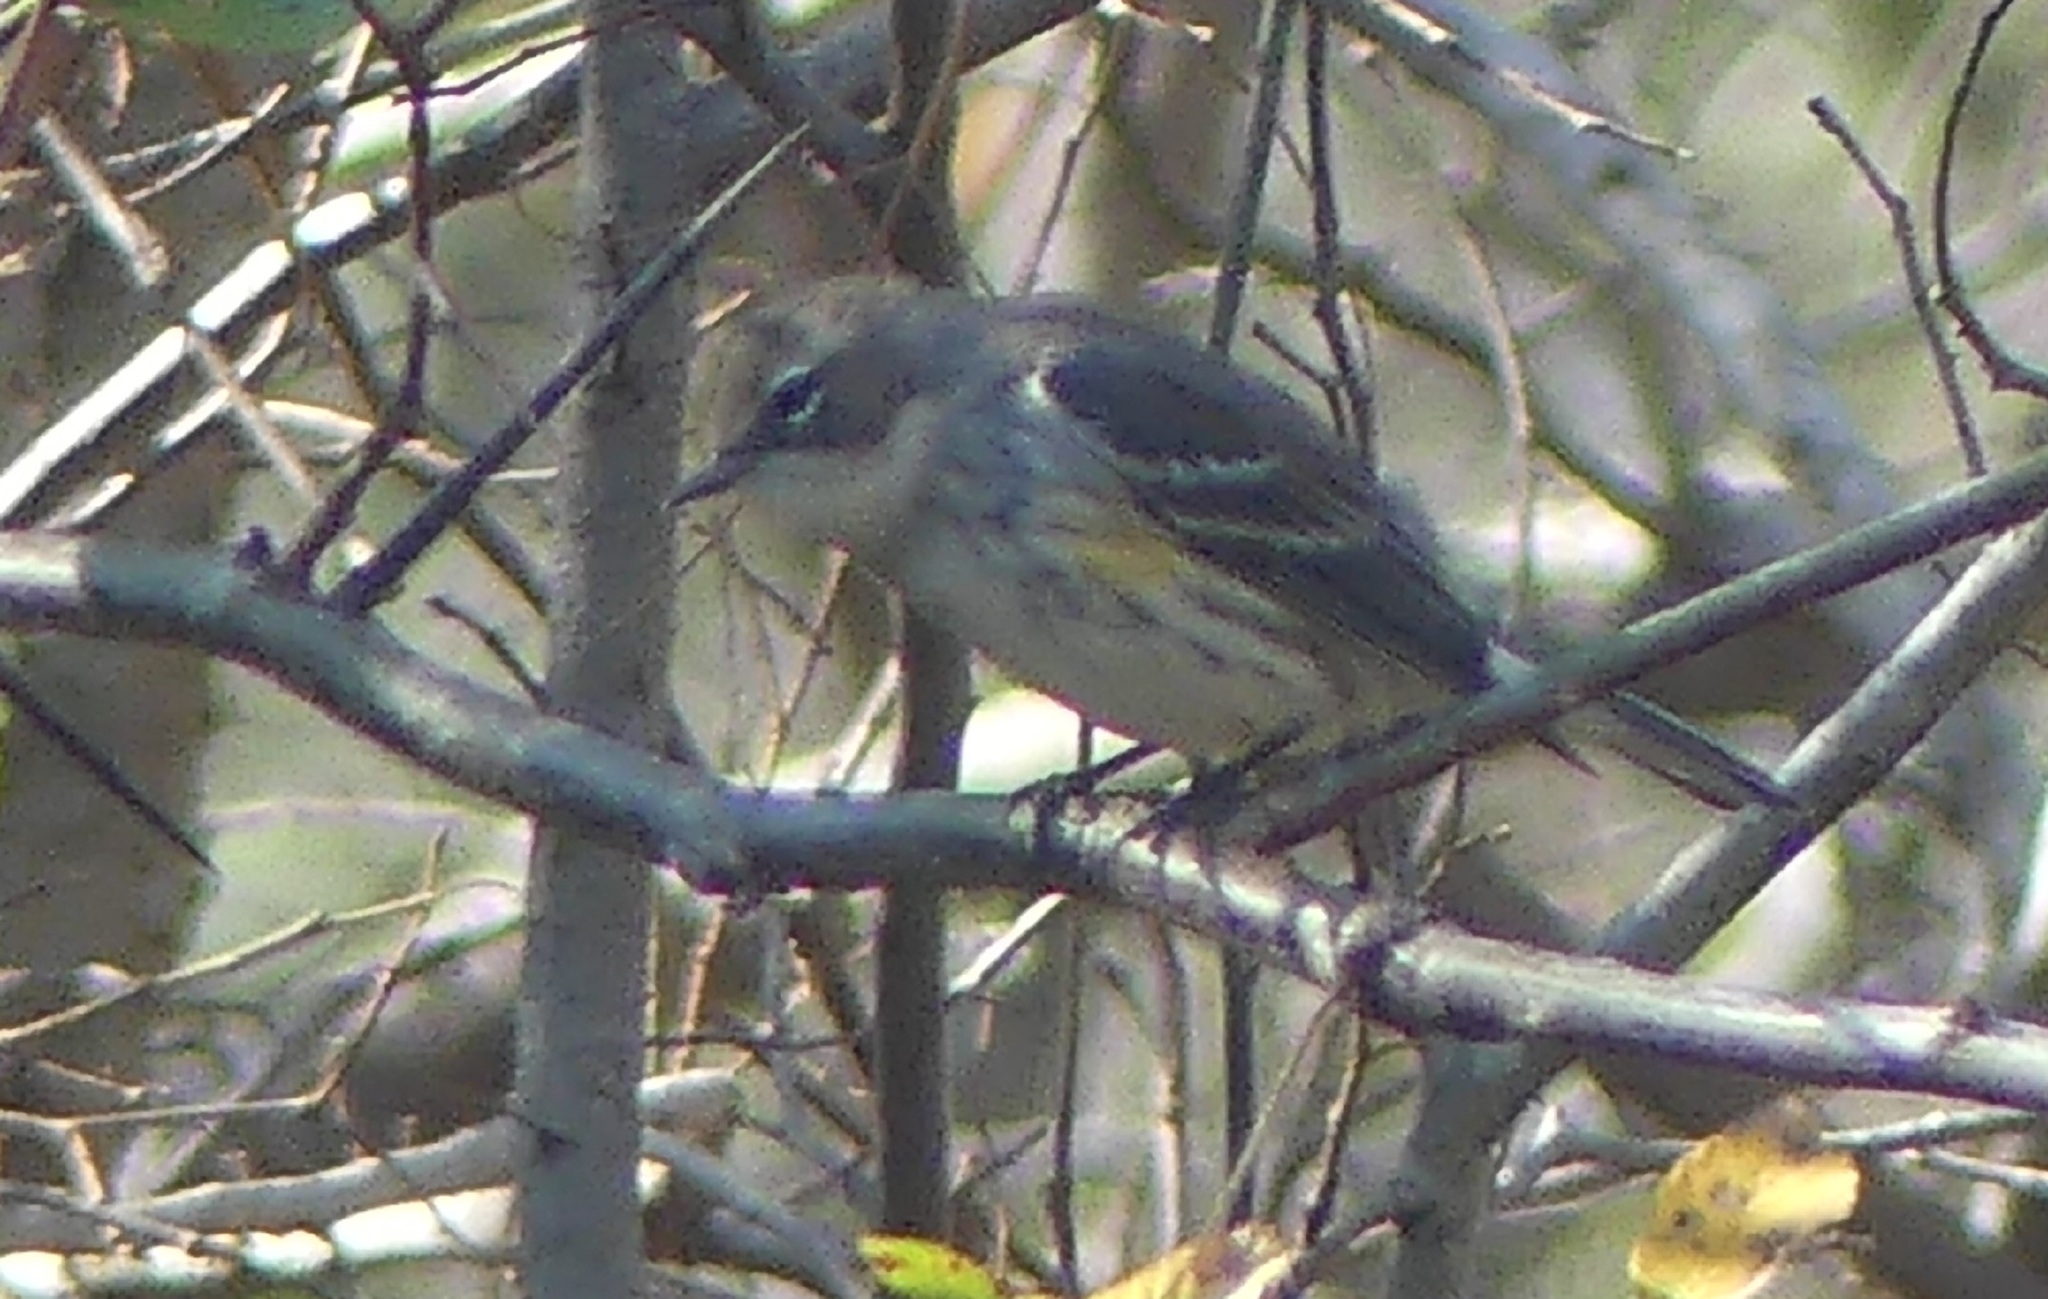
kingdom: Animalia
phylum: Chordata
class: Aves
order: Passeriformes
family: Parulidae
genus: Setophaga
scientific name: Setophaga coronata
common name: Myrtle warbler
